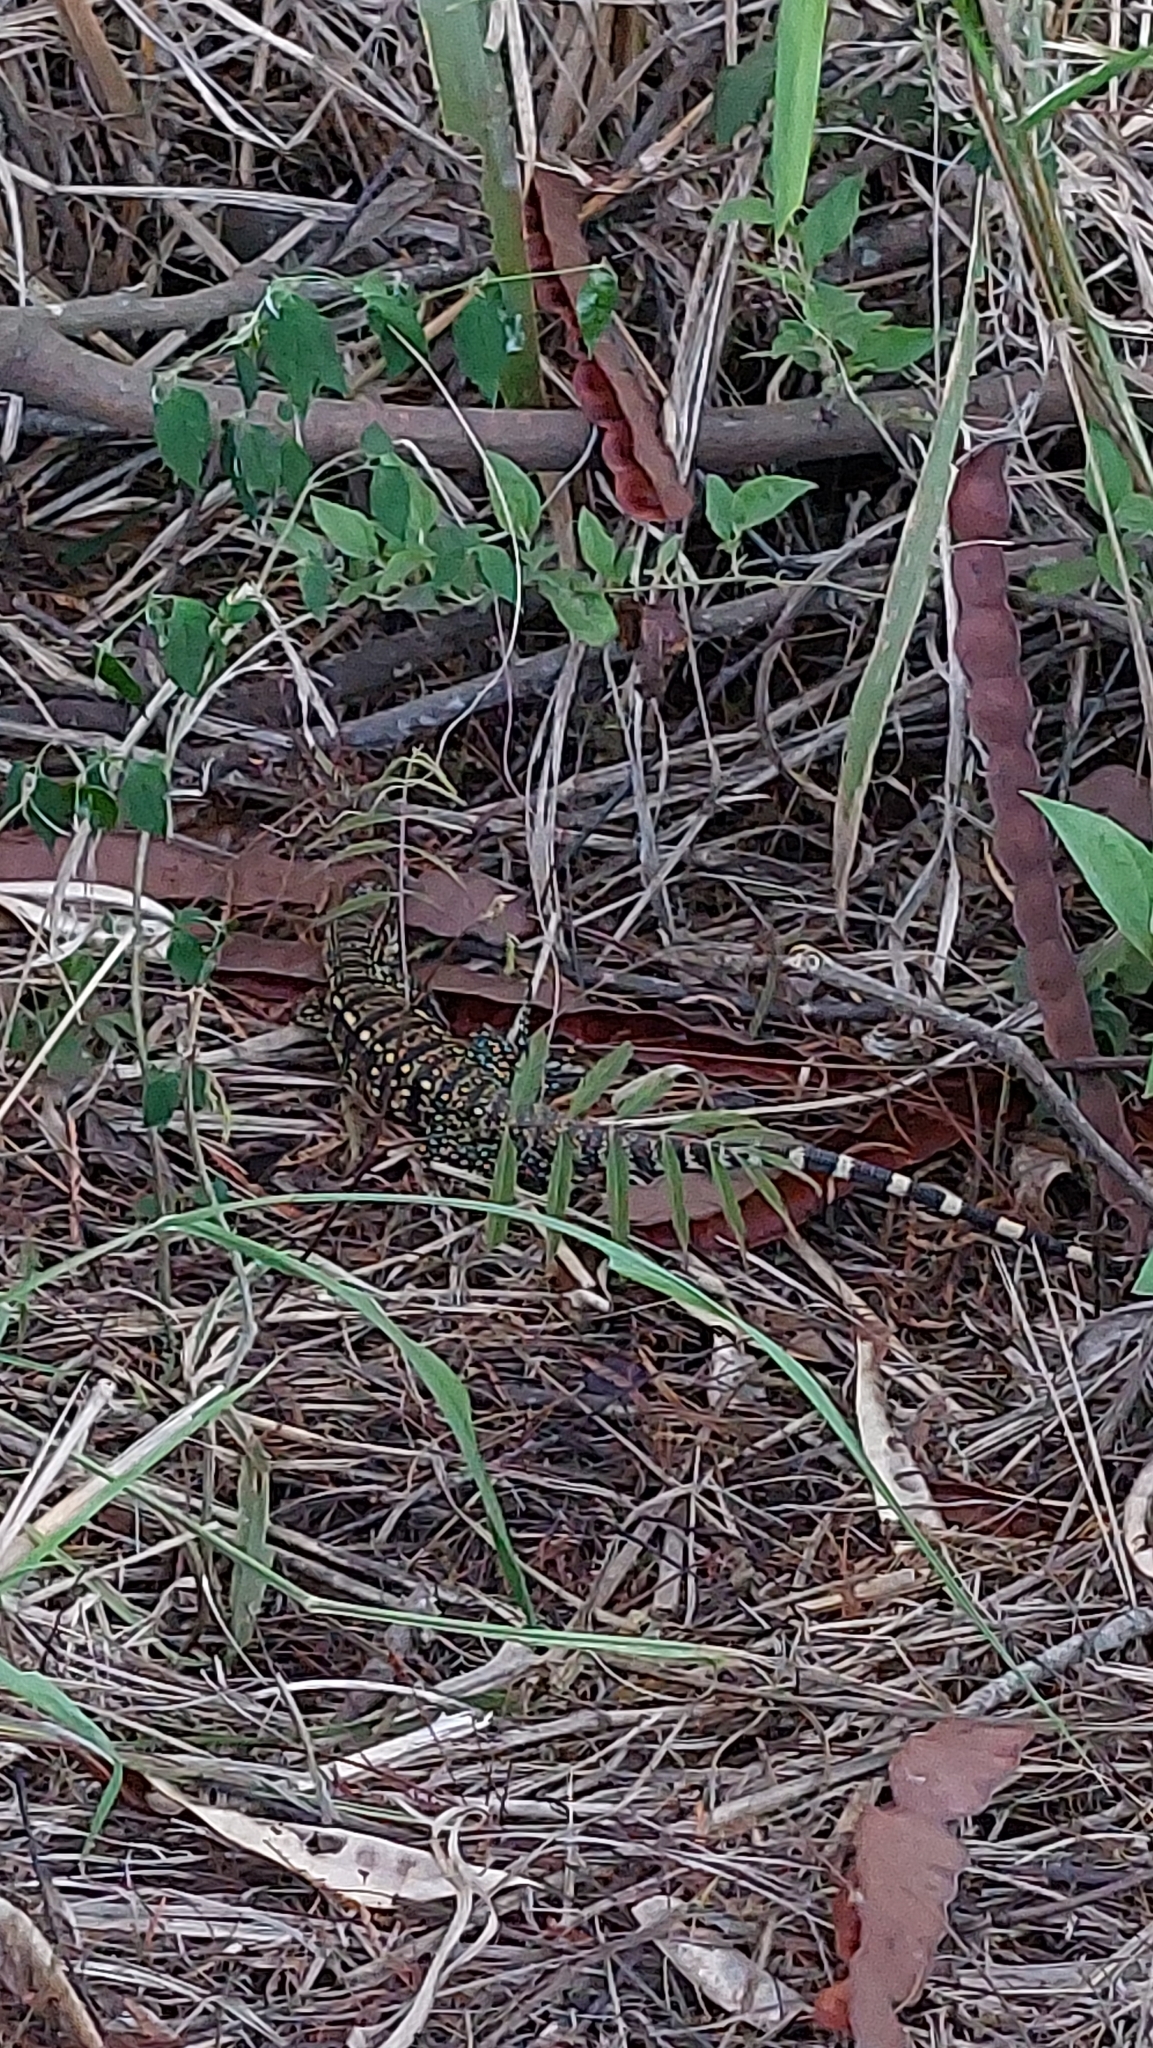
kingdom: Animalia
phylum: Chordata
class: Squamata
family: Teiidae
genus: Salvator
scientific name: Salvator merianae
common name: Argentine black and white tegu
